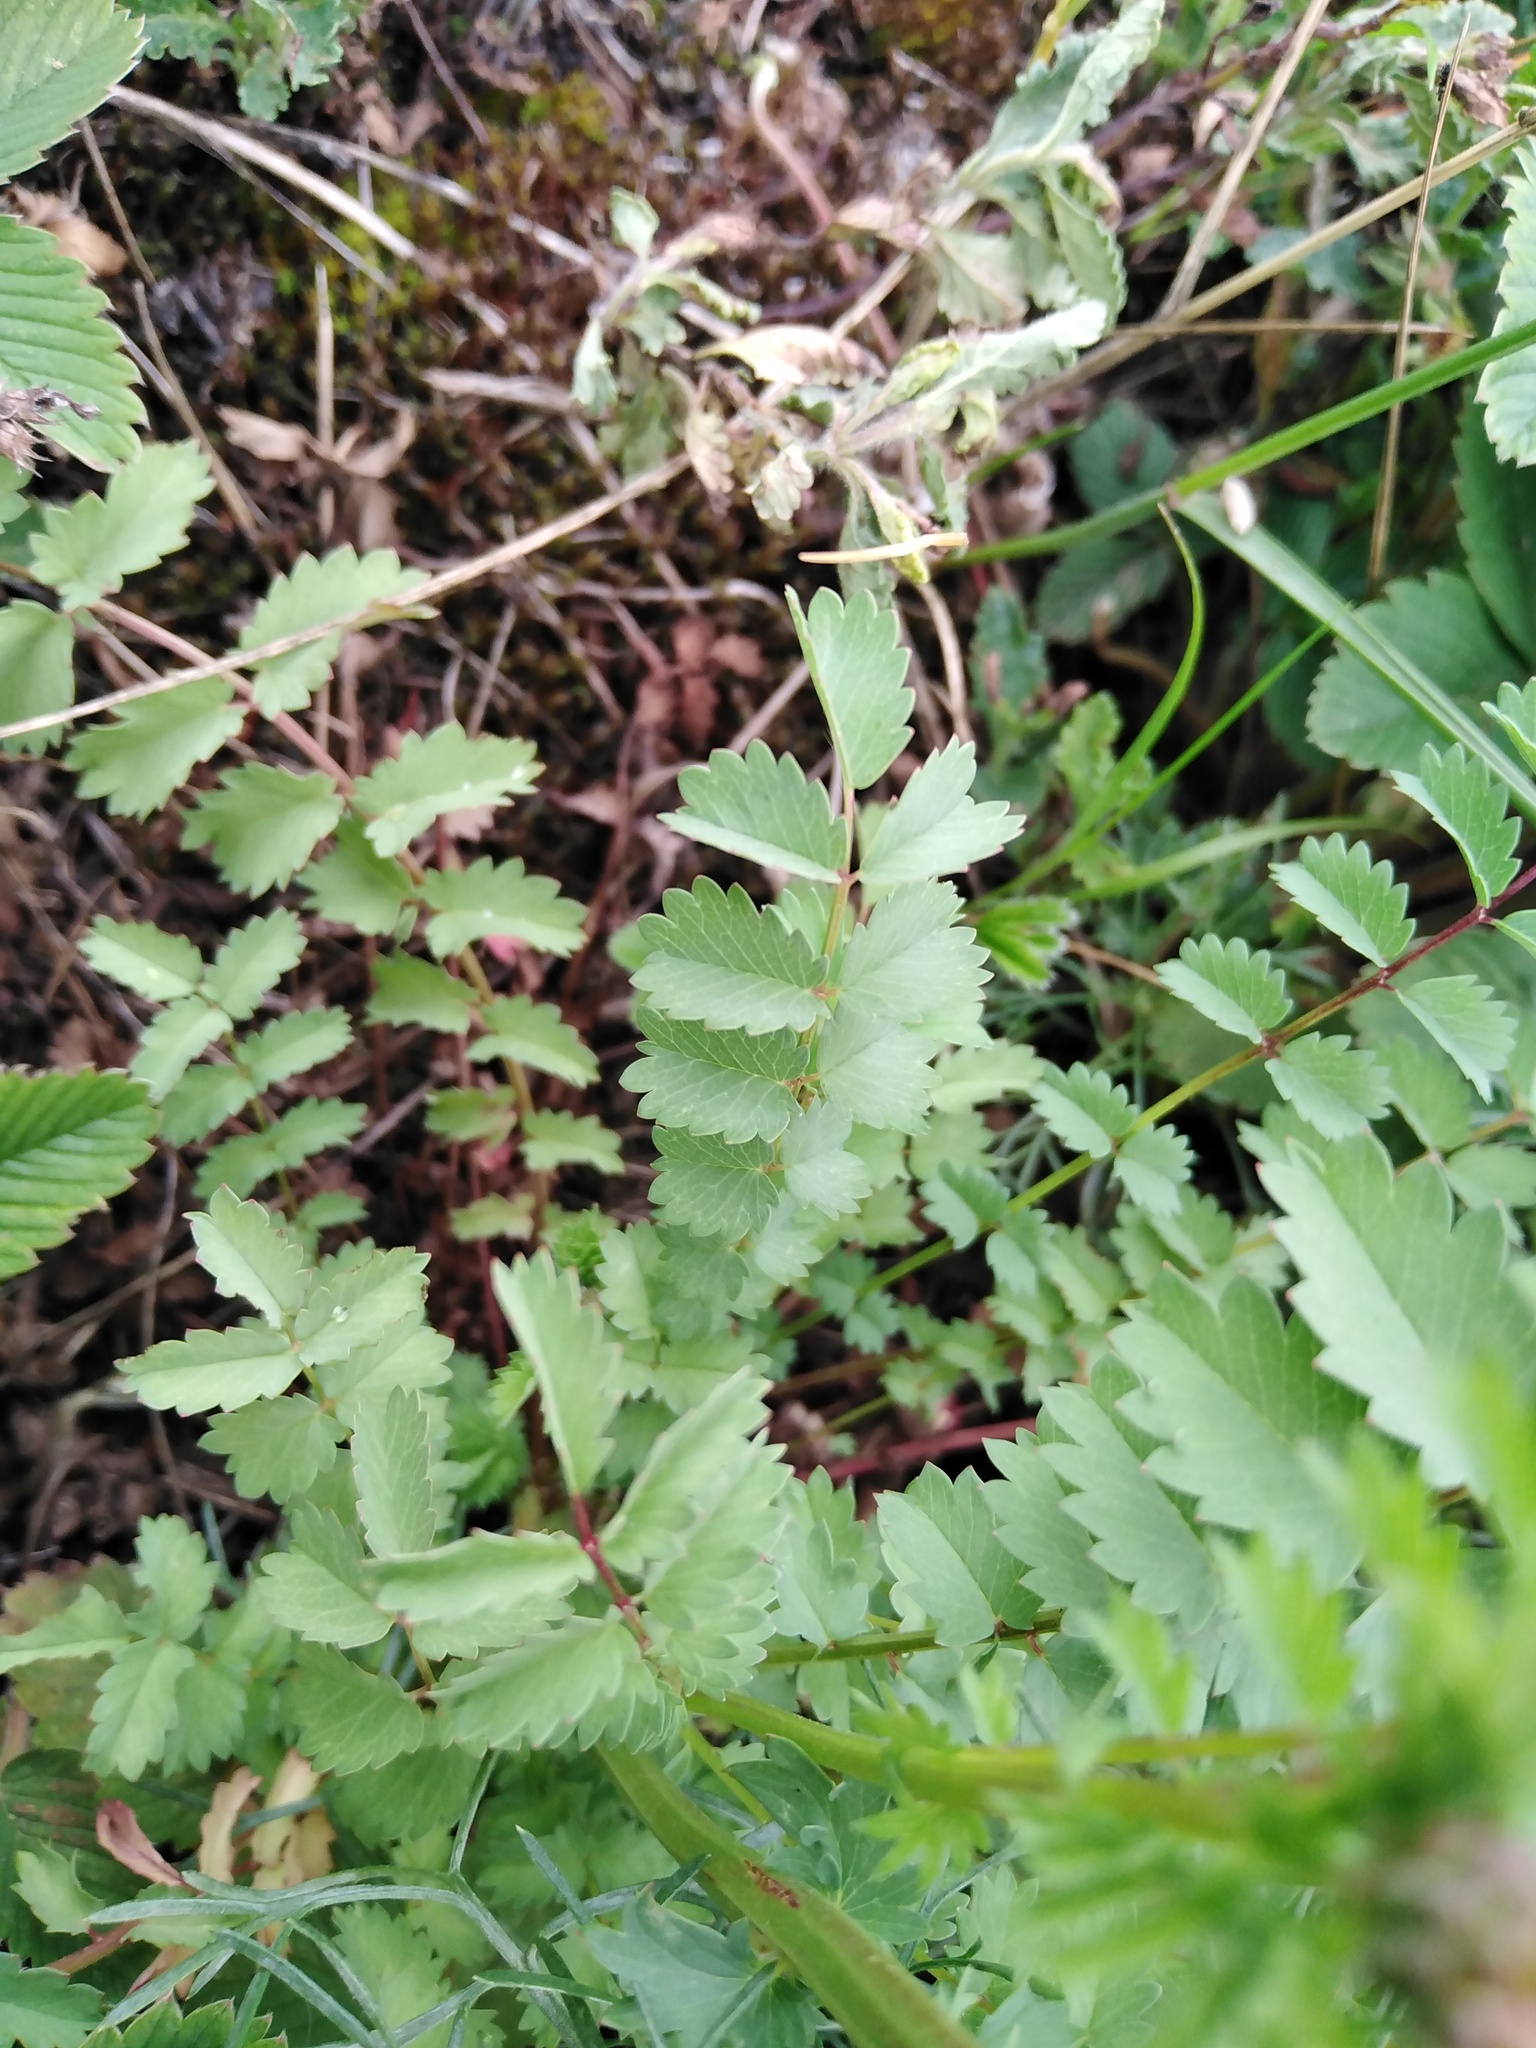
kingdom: Plantae
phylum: Tracheophyta
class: Magnoliopsida
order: Rosales
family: Rosaceae
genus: Poterium
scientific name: Poterium sanguisorba
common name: Salad burnet
